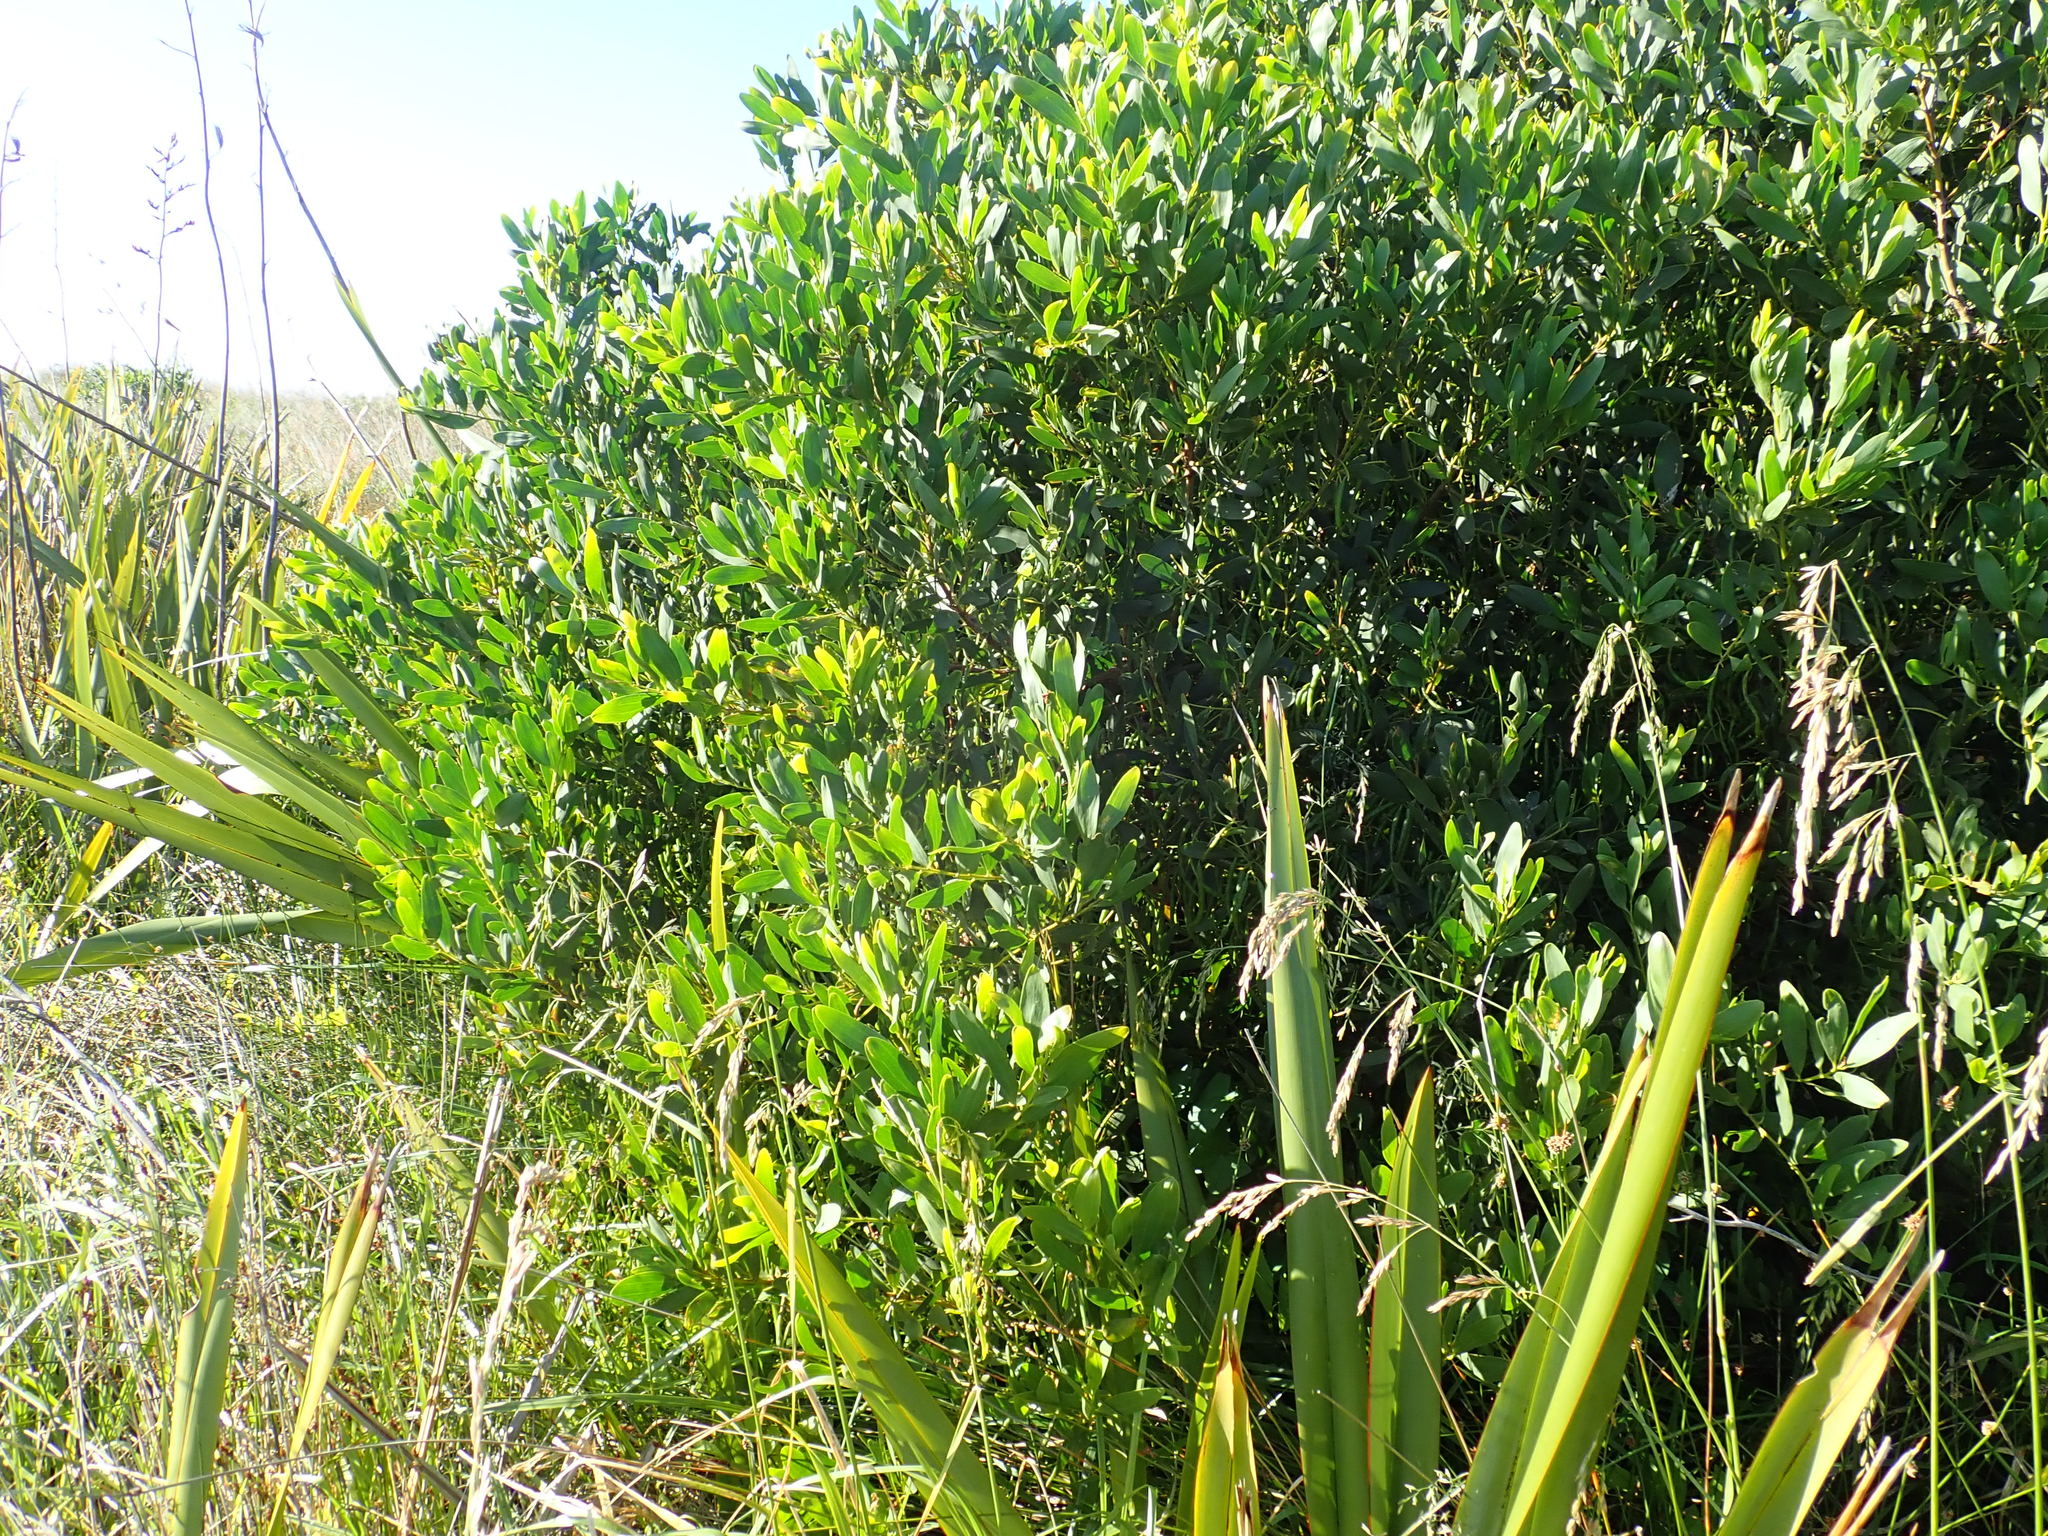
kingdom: Plantae
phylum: Tracheophyta
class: Magnoliopsida
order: Fabales
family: Fabaceae
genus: Acacia
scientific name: Acacia longifolia
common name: Sydney golden wattle
